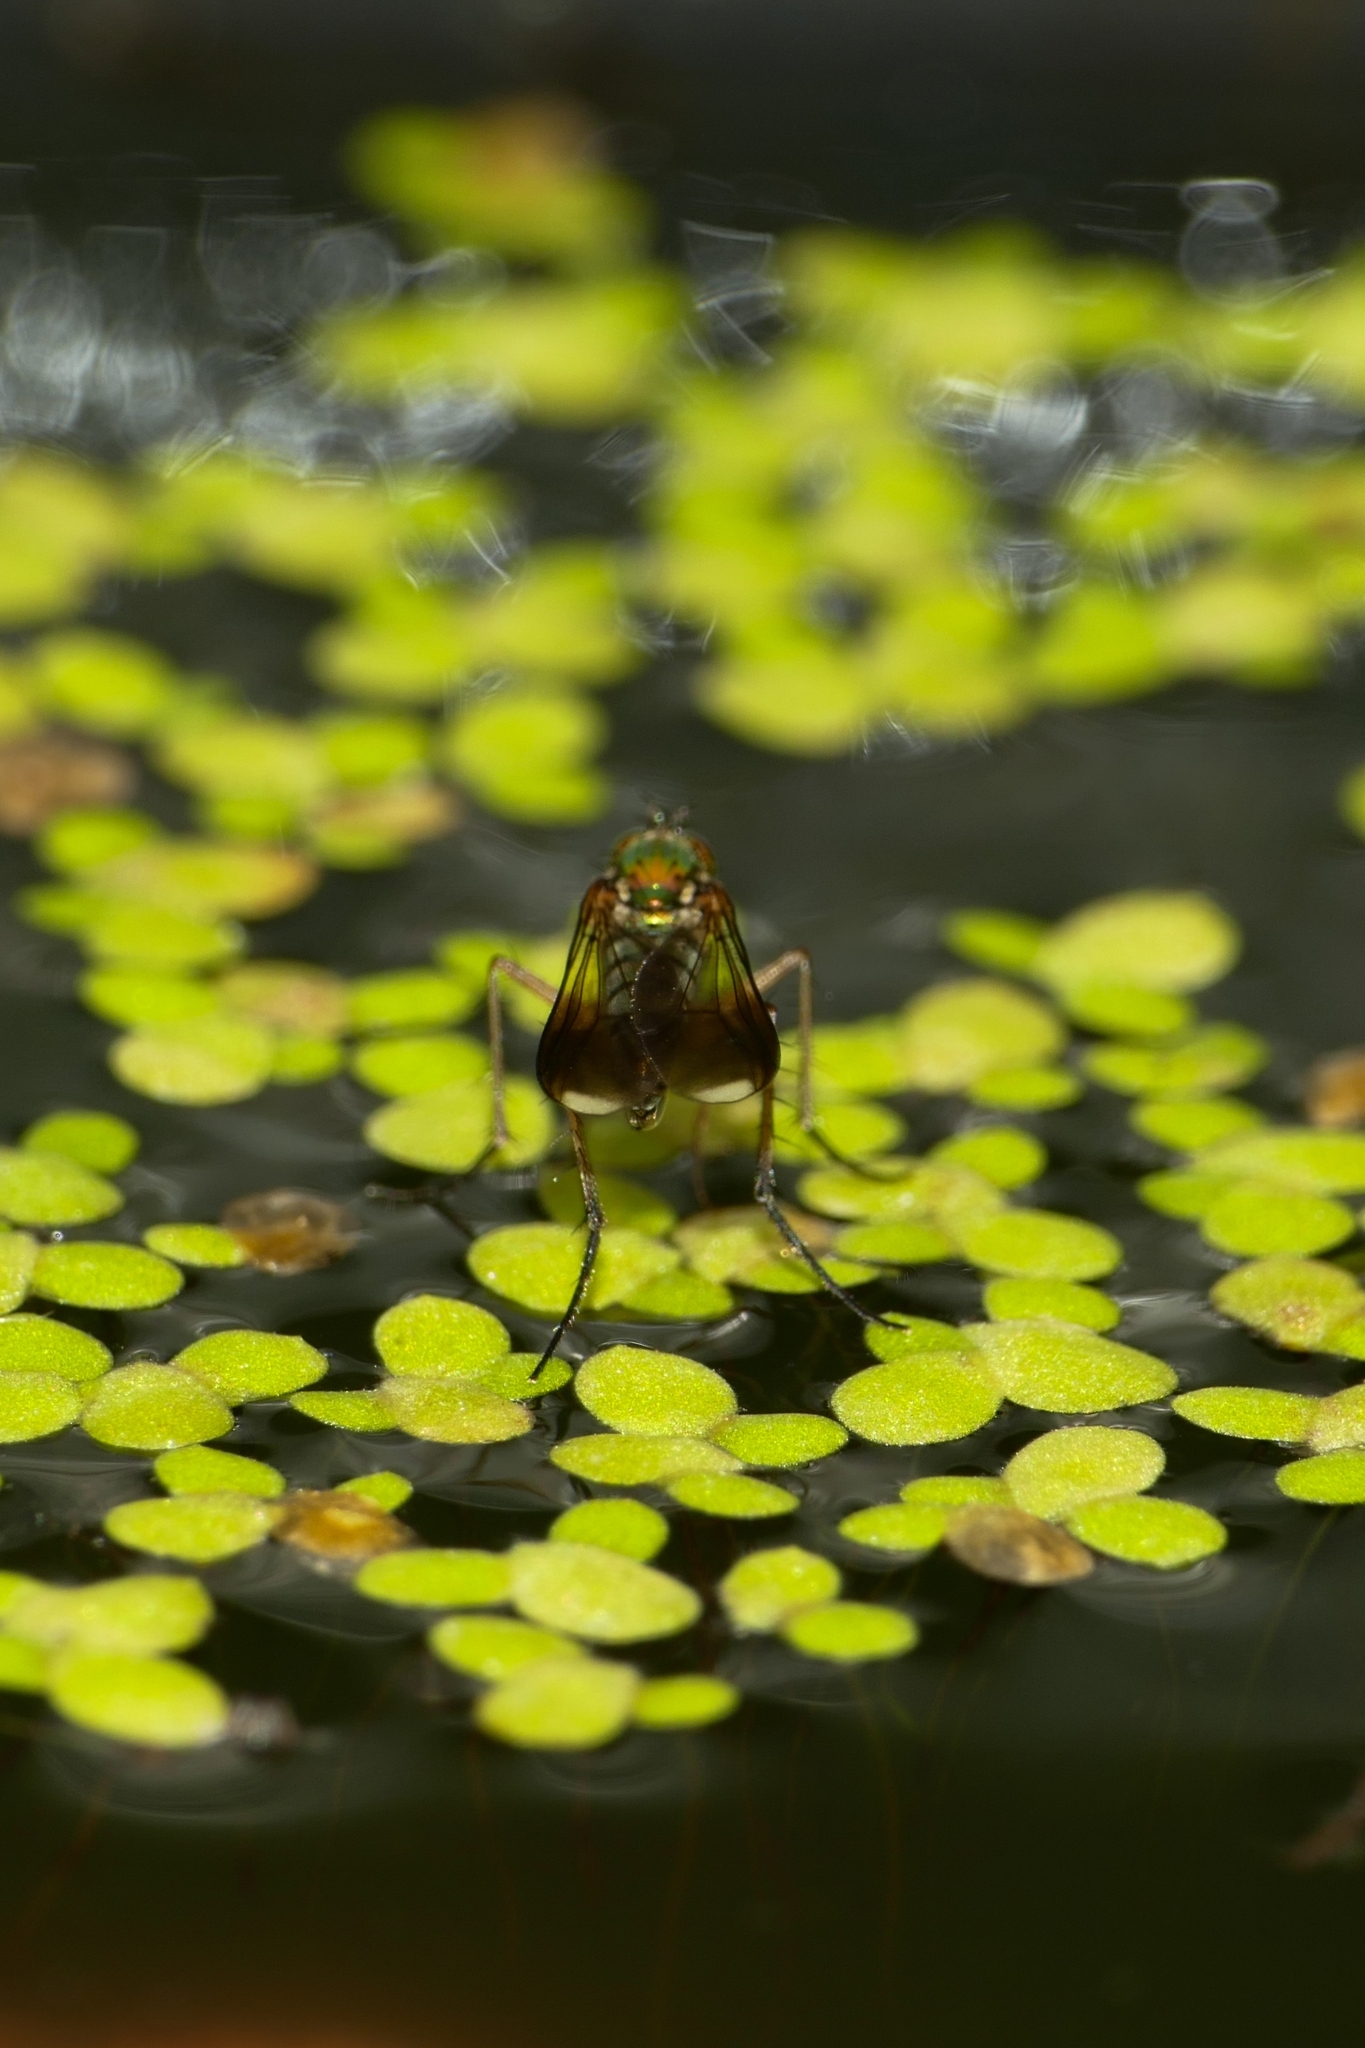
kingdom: Animalia
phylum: Arthropoda
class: Insecta
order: Diptera
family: Dolichopodidae
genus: Poecilobothrus
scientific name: Poecilobothrus nobilitatus
